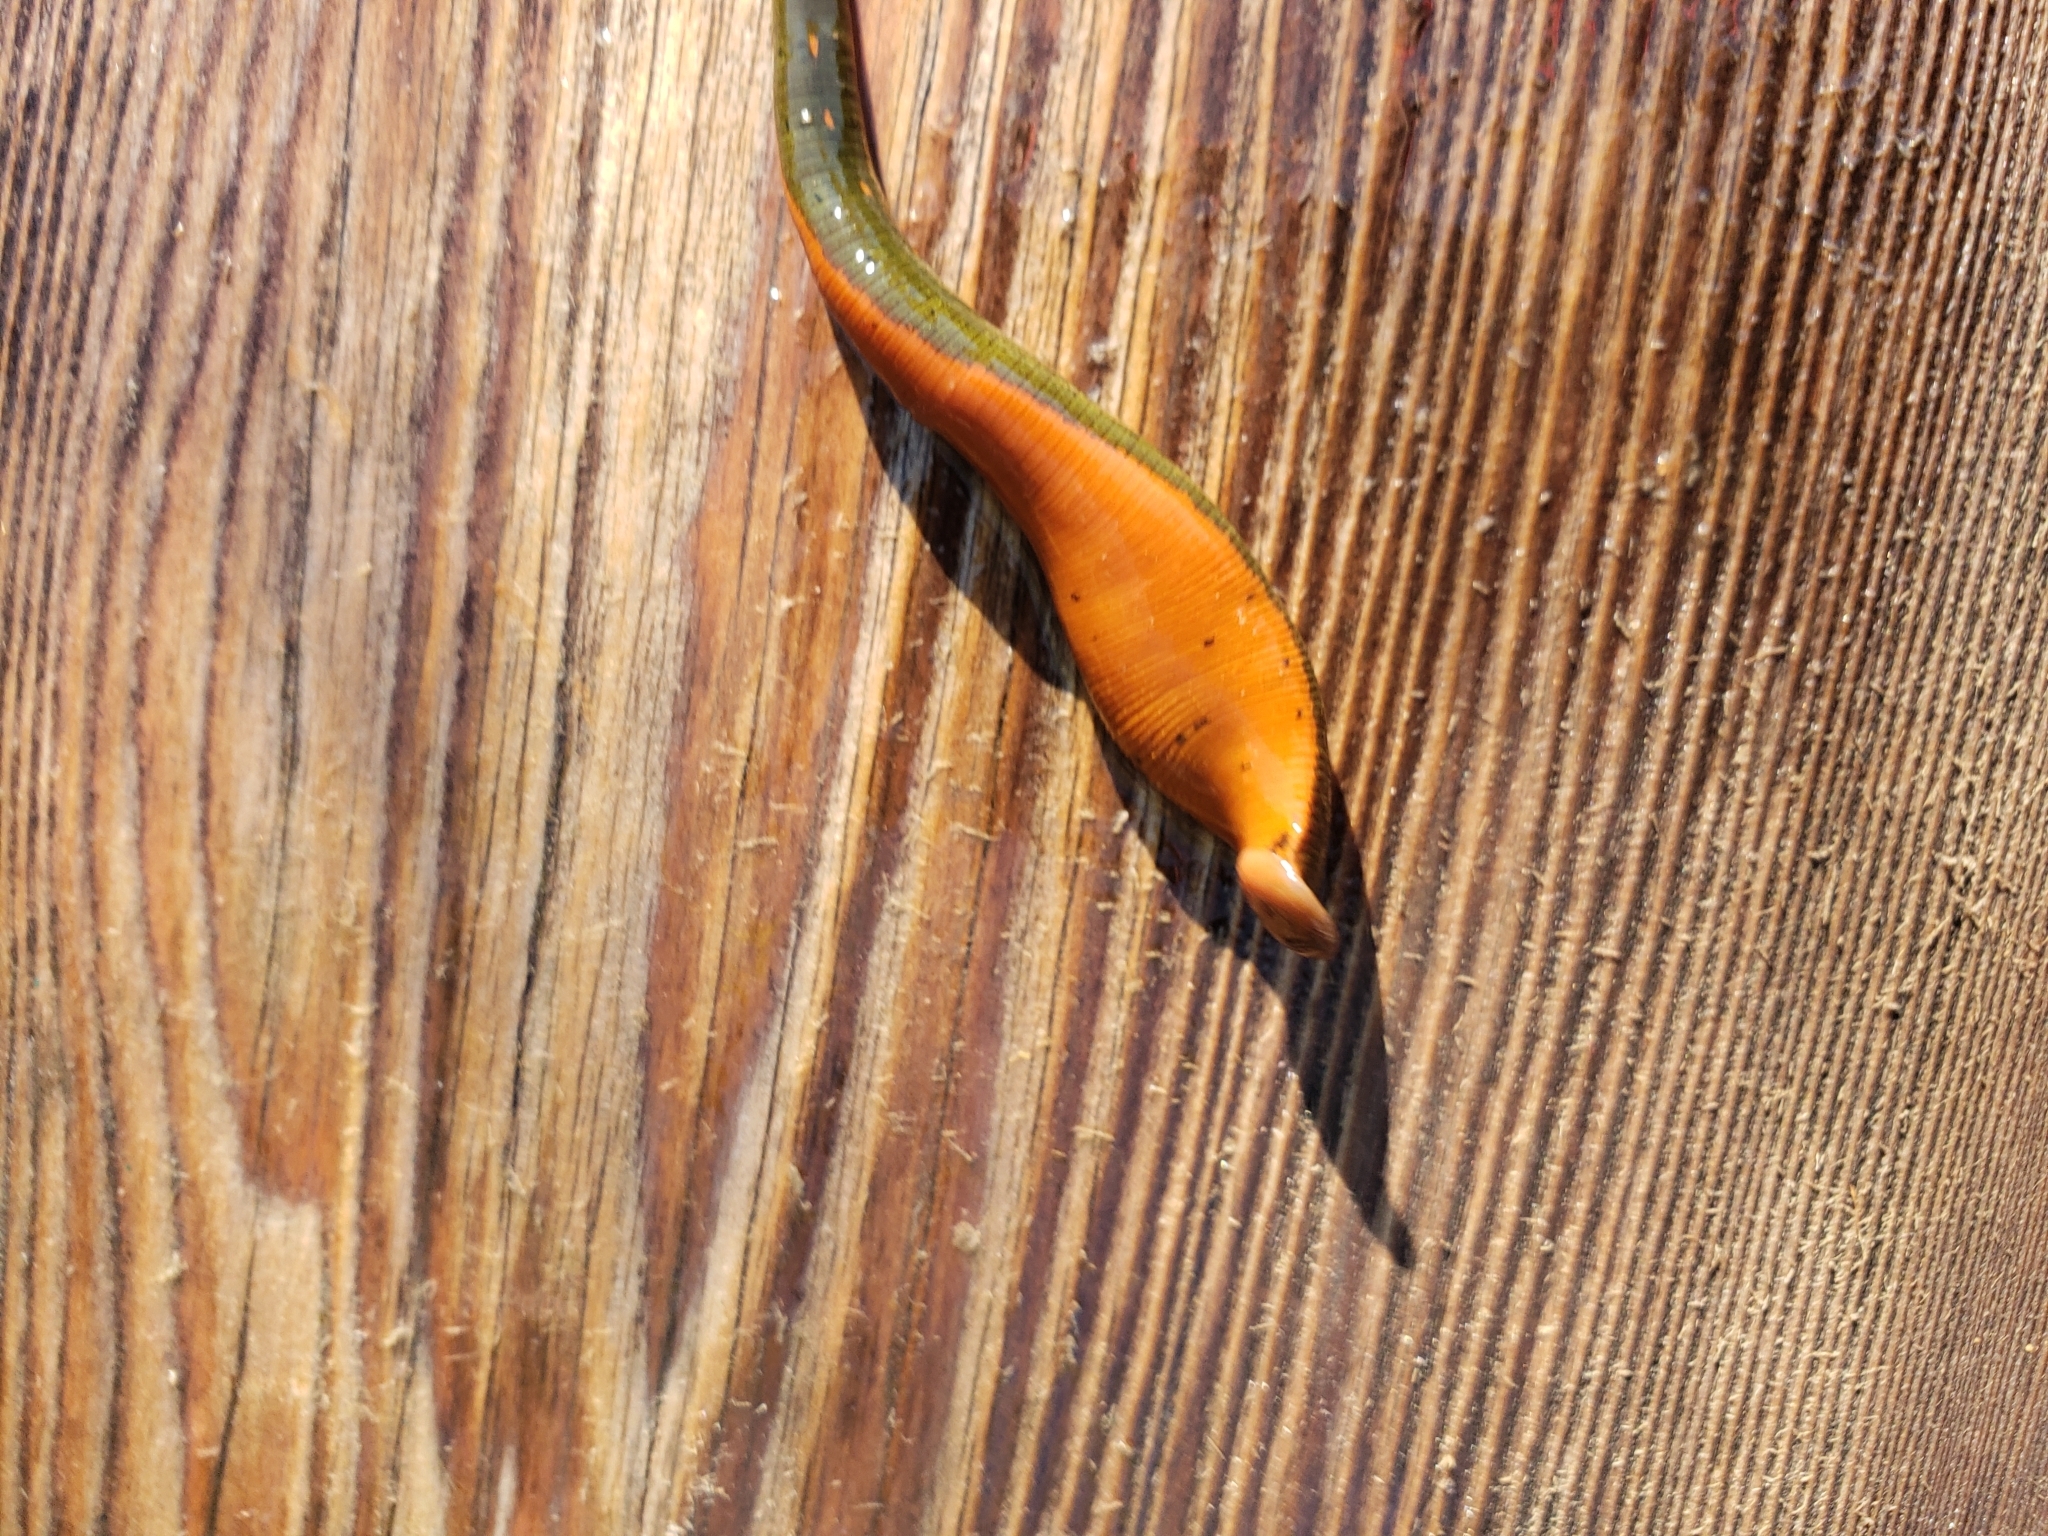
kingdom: Animalia
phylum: Annelida
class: Clitellata
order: Arhynchobdellida
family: Hirudinidae
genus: Macrobdella
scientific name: Macrobdella decora
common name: North american leech
